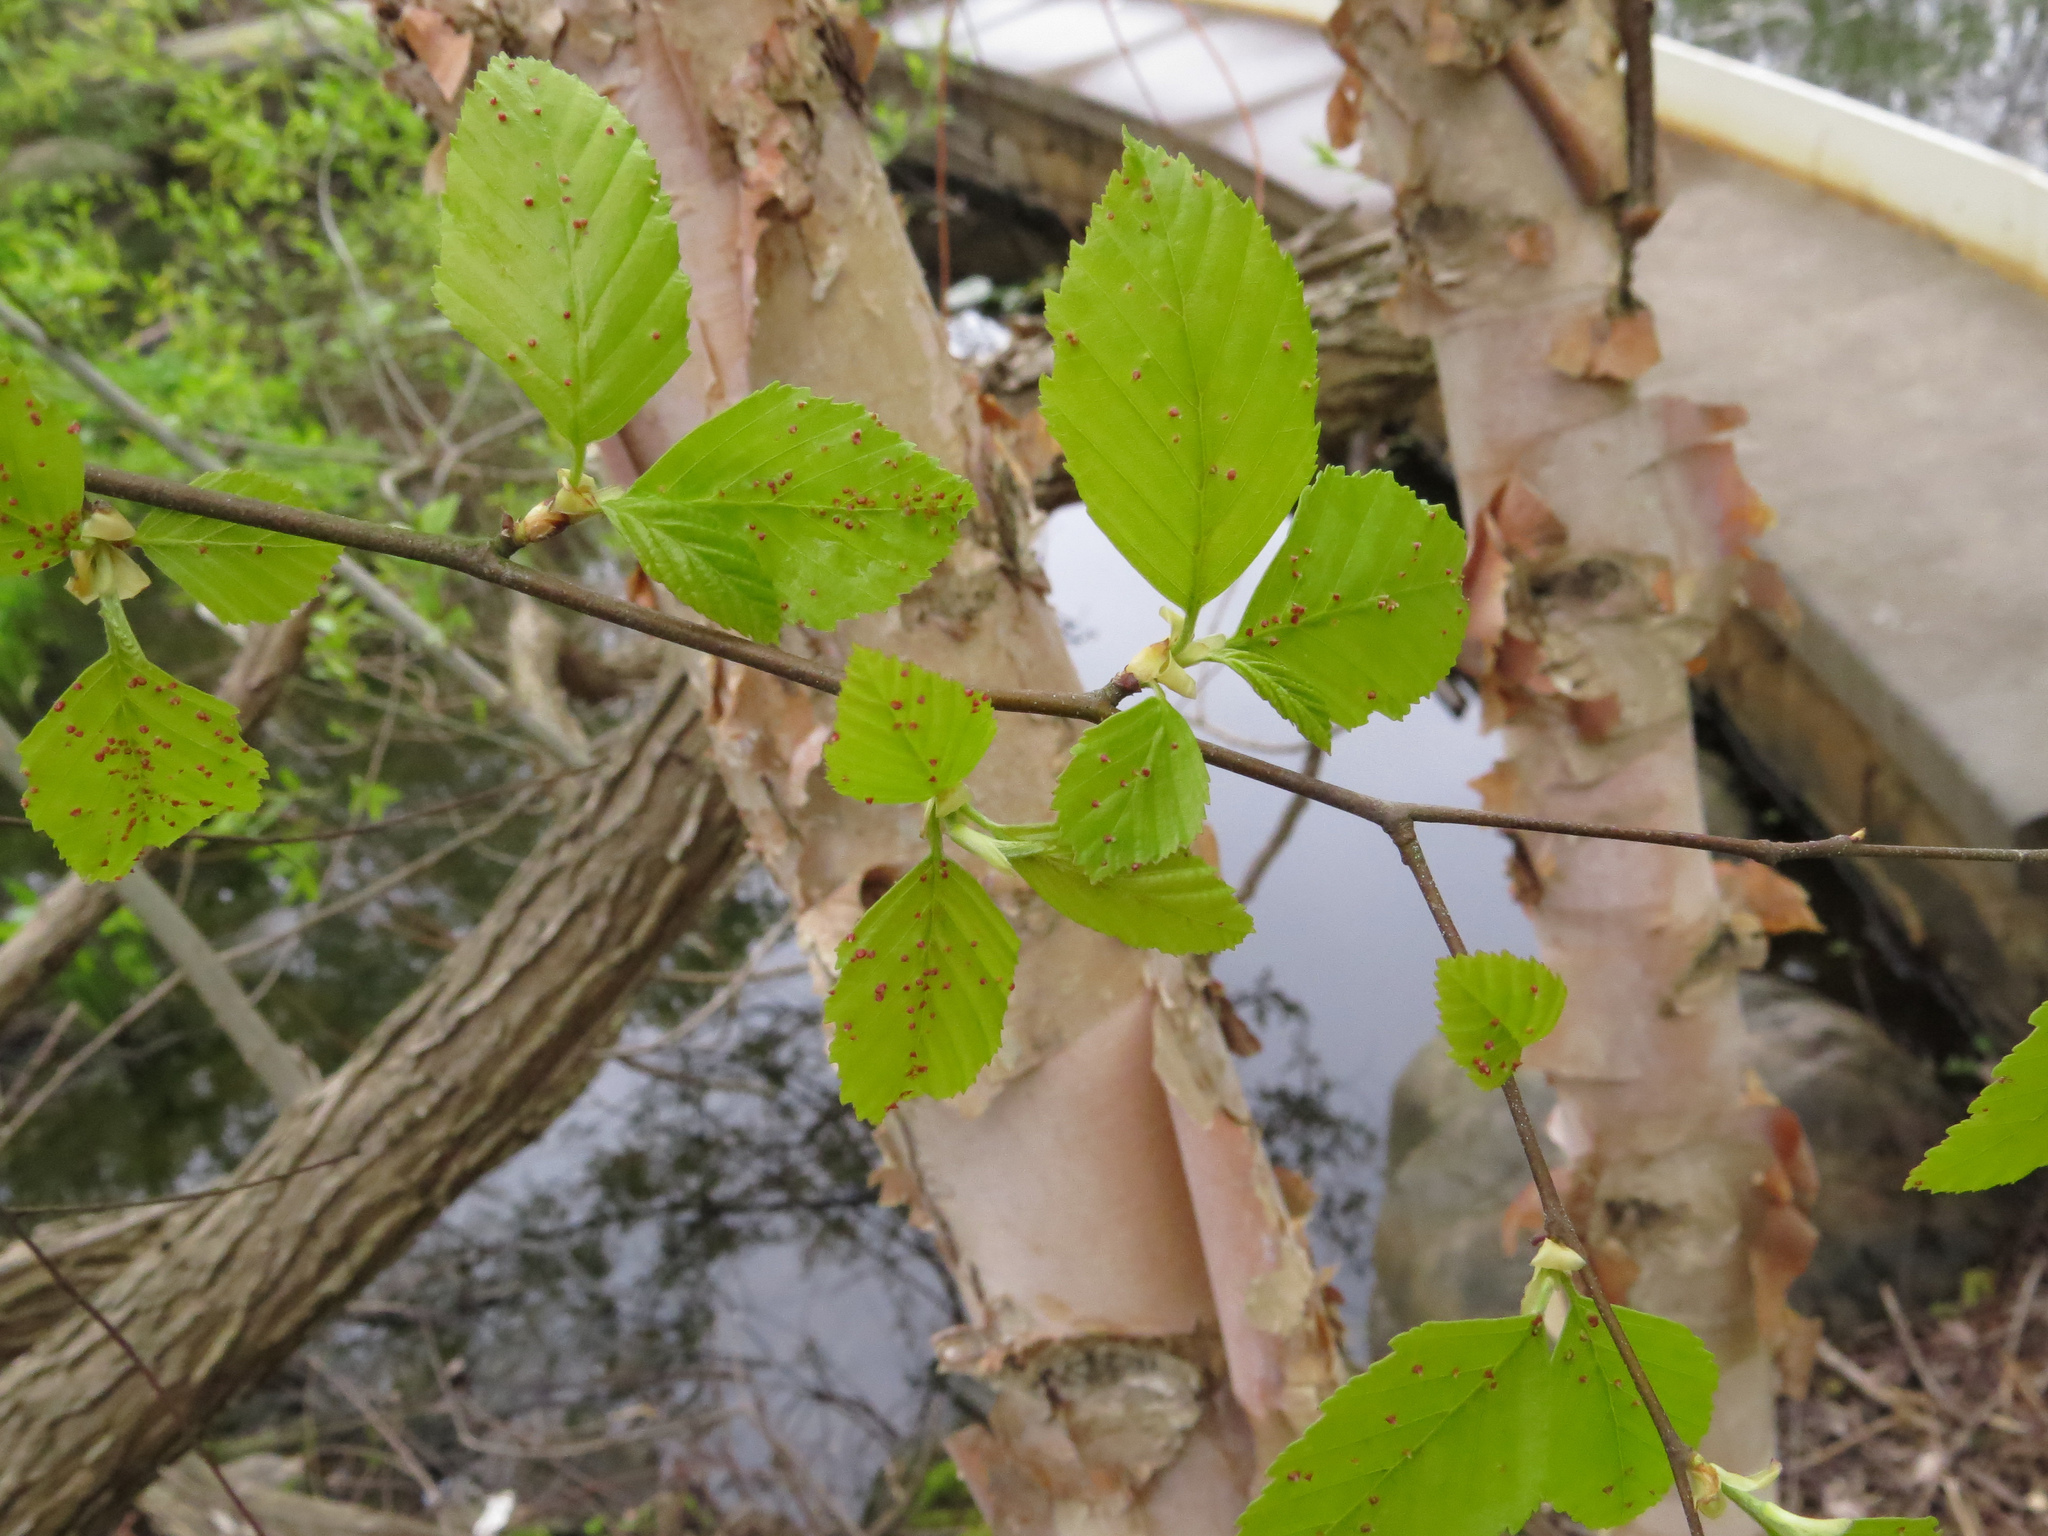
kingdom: Plantae
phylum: Tracheophyta
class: Magnoliopsida
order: Fagales
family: Betulaceae
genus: Betula
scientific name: Betula nigra
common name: Black birch
